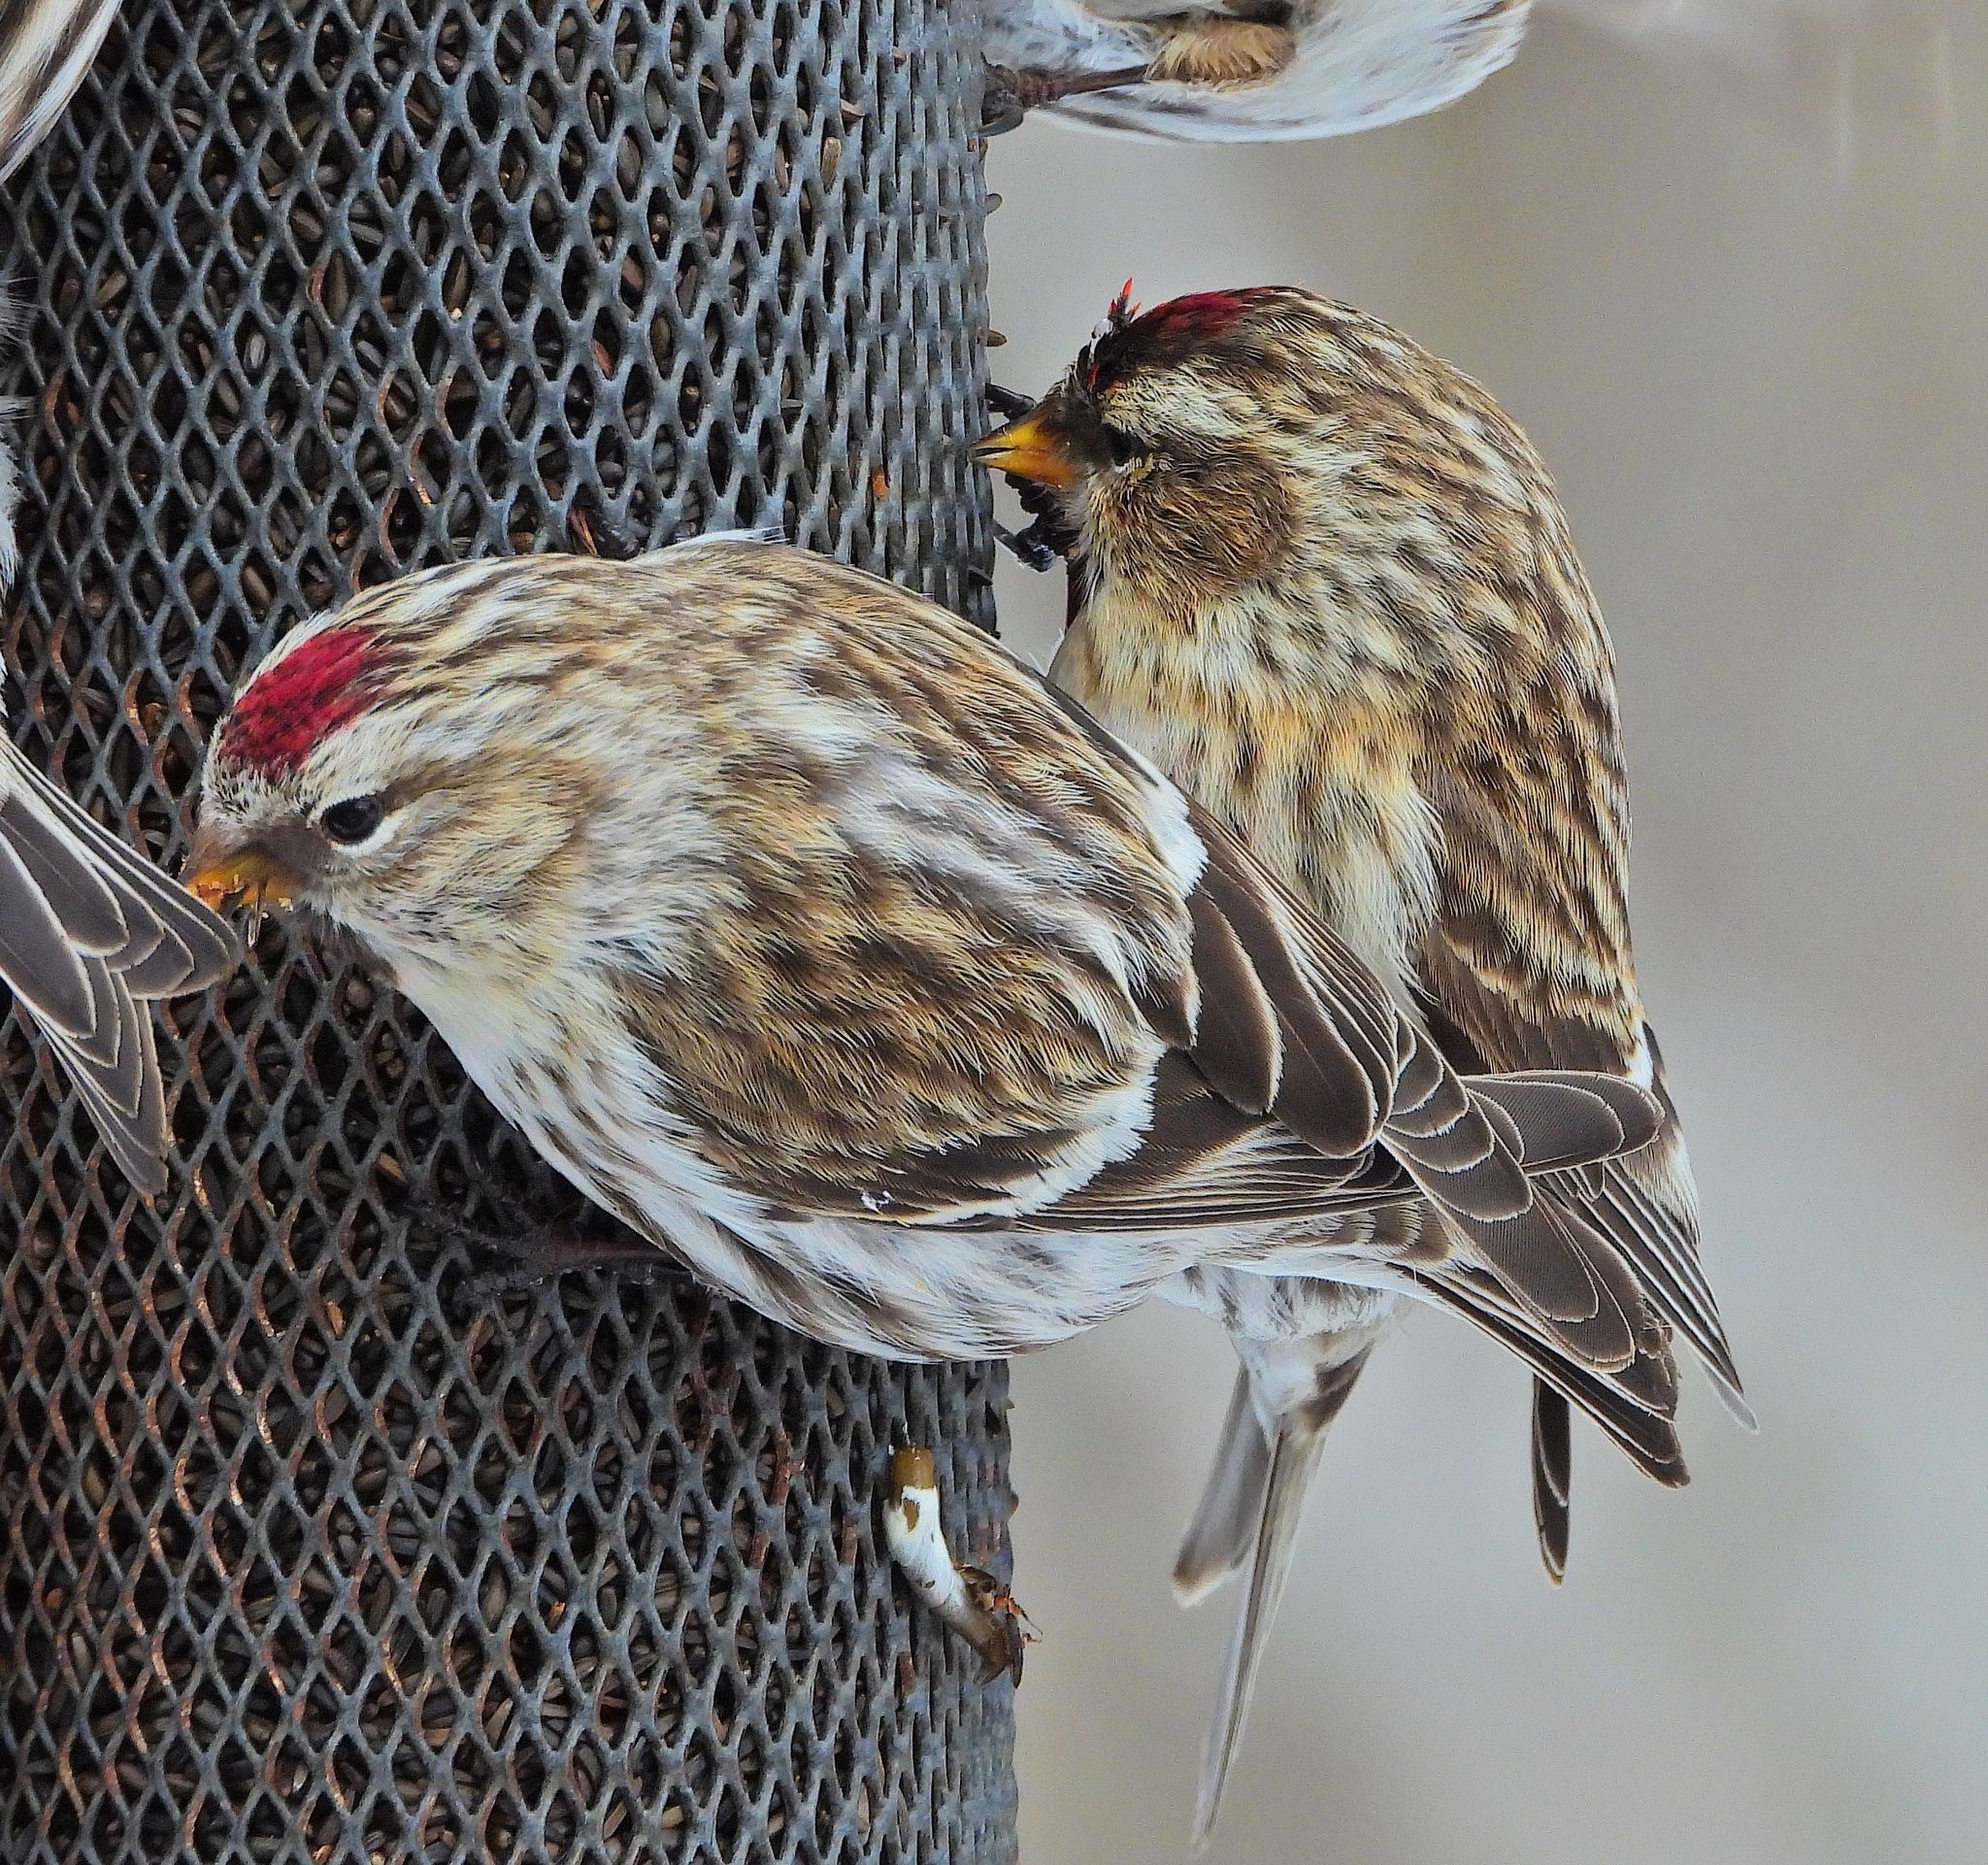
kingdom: Animalia
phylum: Chordata
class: Aves
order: Passeriformes
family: Fringillidae
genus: Acanthis
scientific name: Acanthis flammea
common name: Common redpoll
